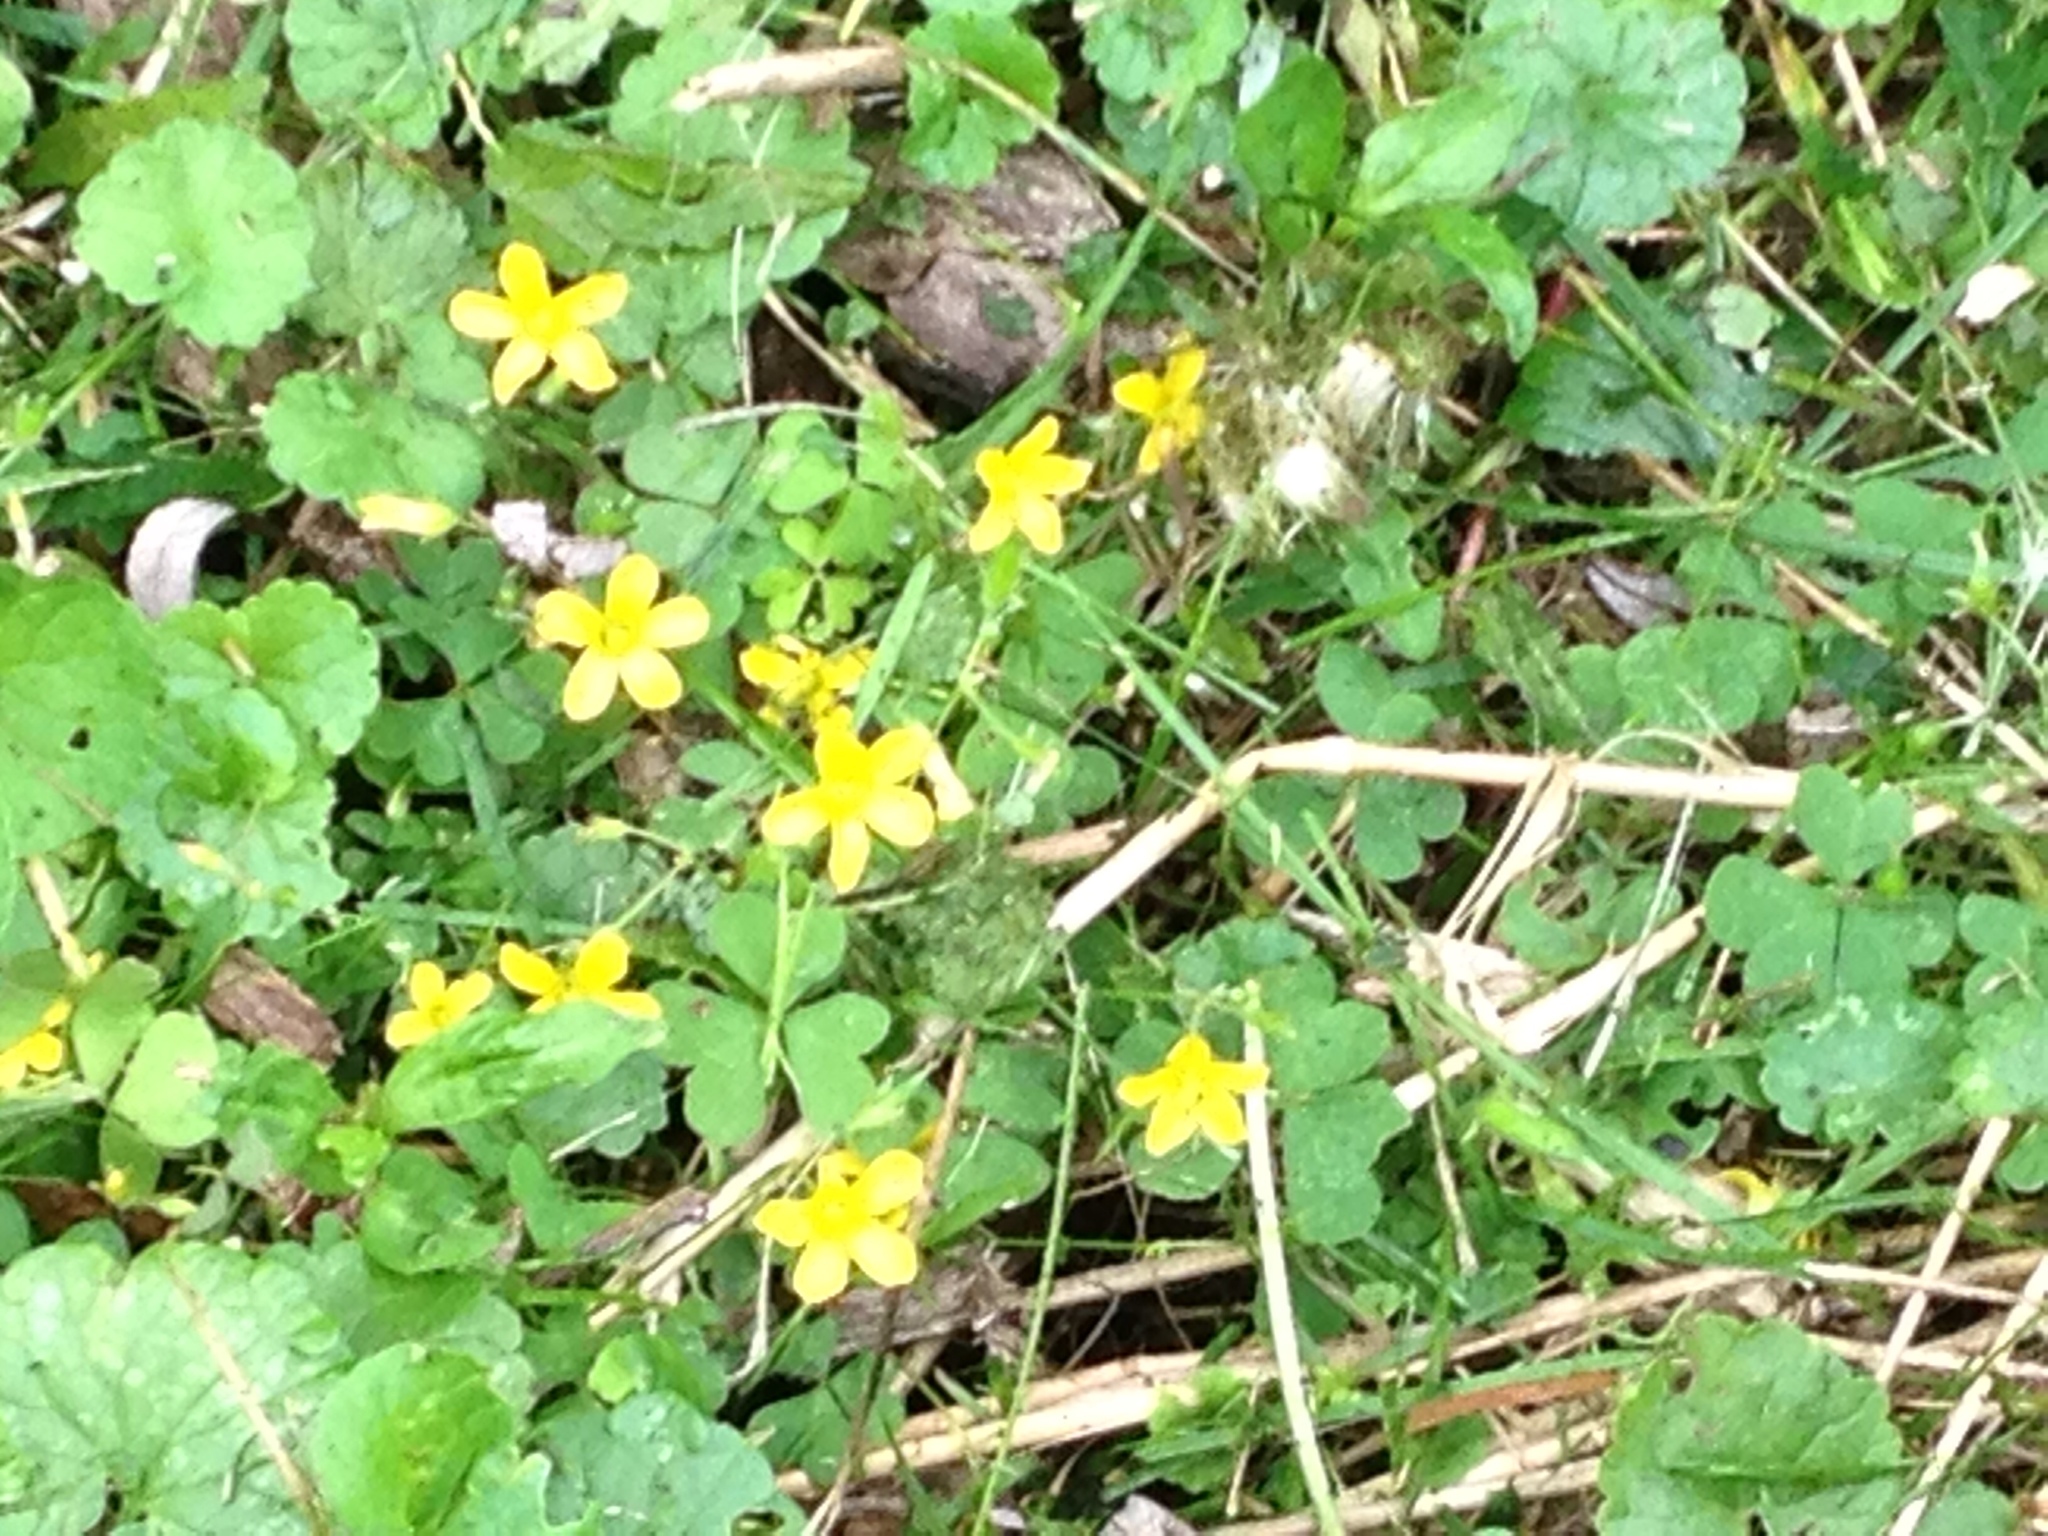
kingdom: Plantae
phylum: Tracheophyta
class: Magnoliopsida
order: Oxalidales
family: Oxalidaceae
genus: Oxalis
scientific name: Oxalis corniculata
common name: Procumbent yellow-sorrel
